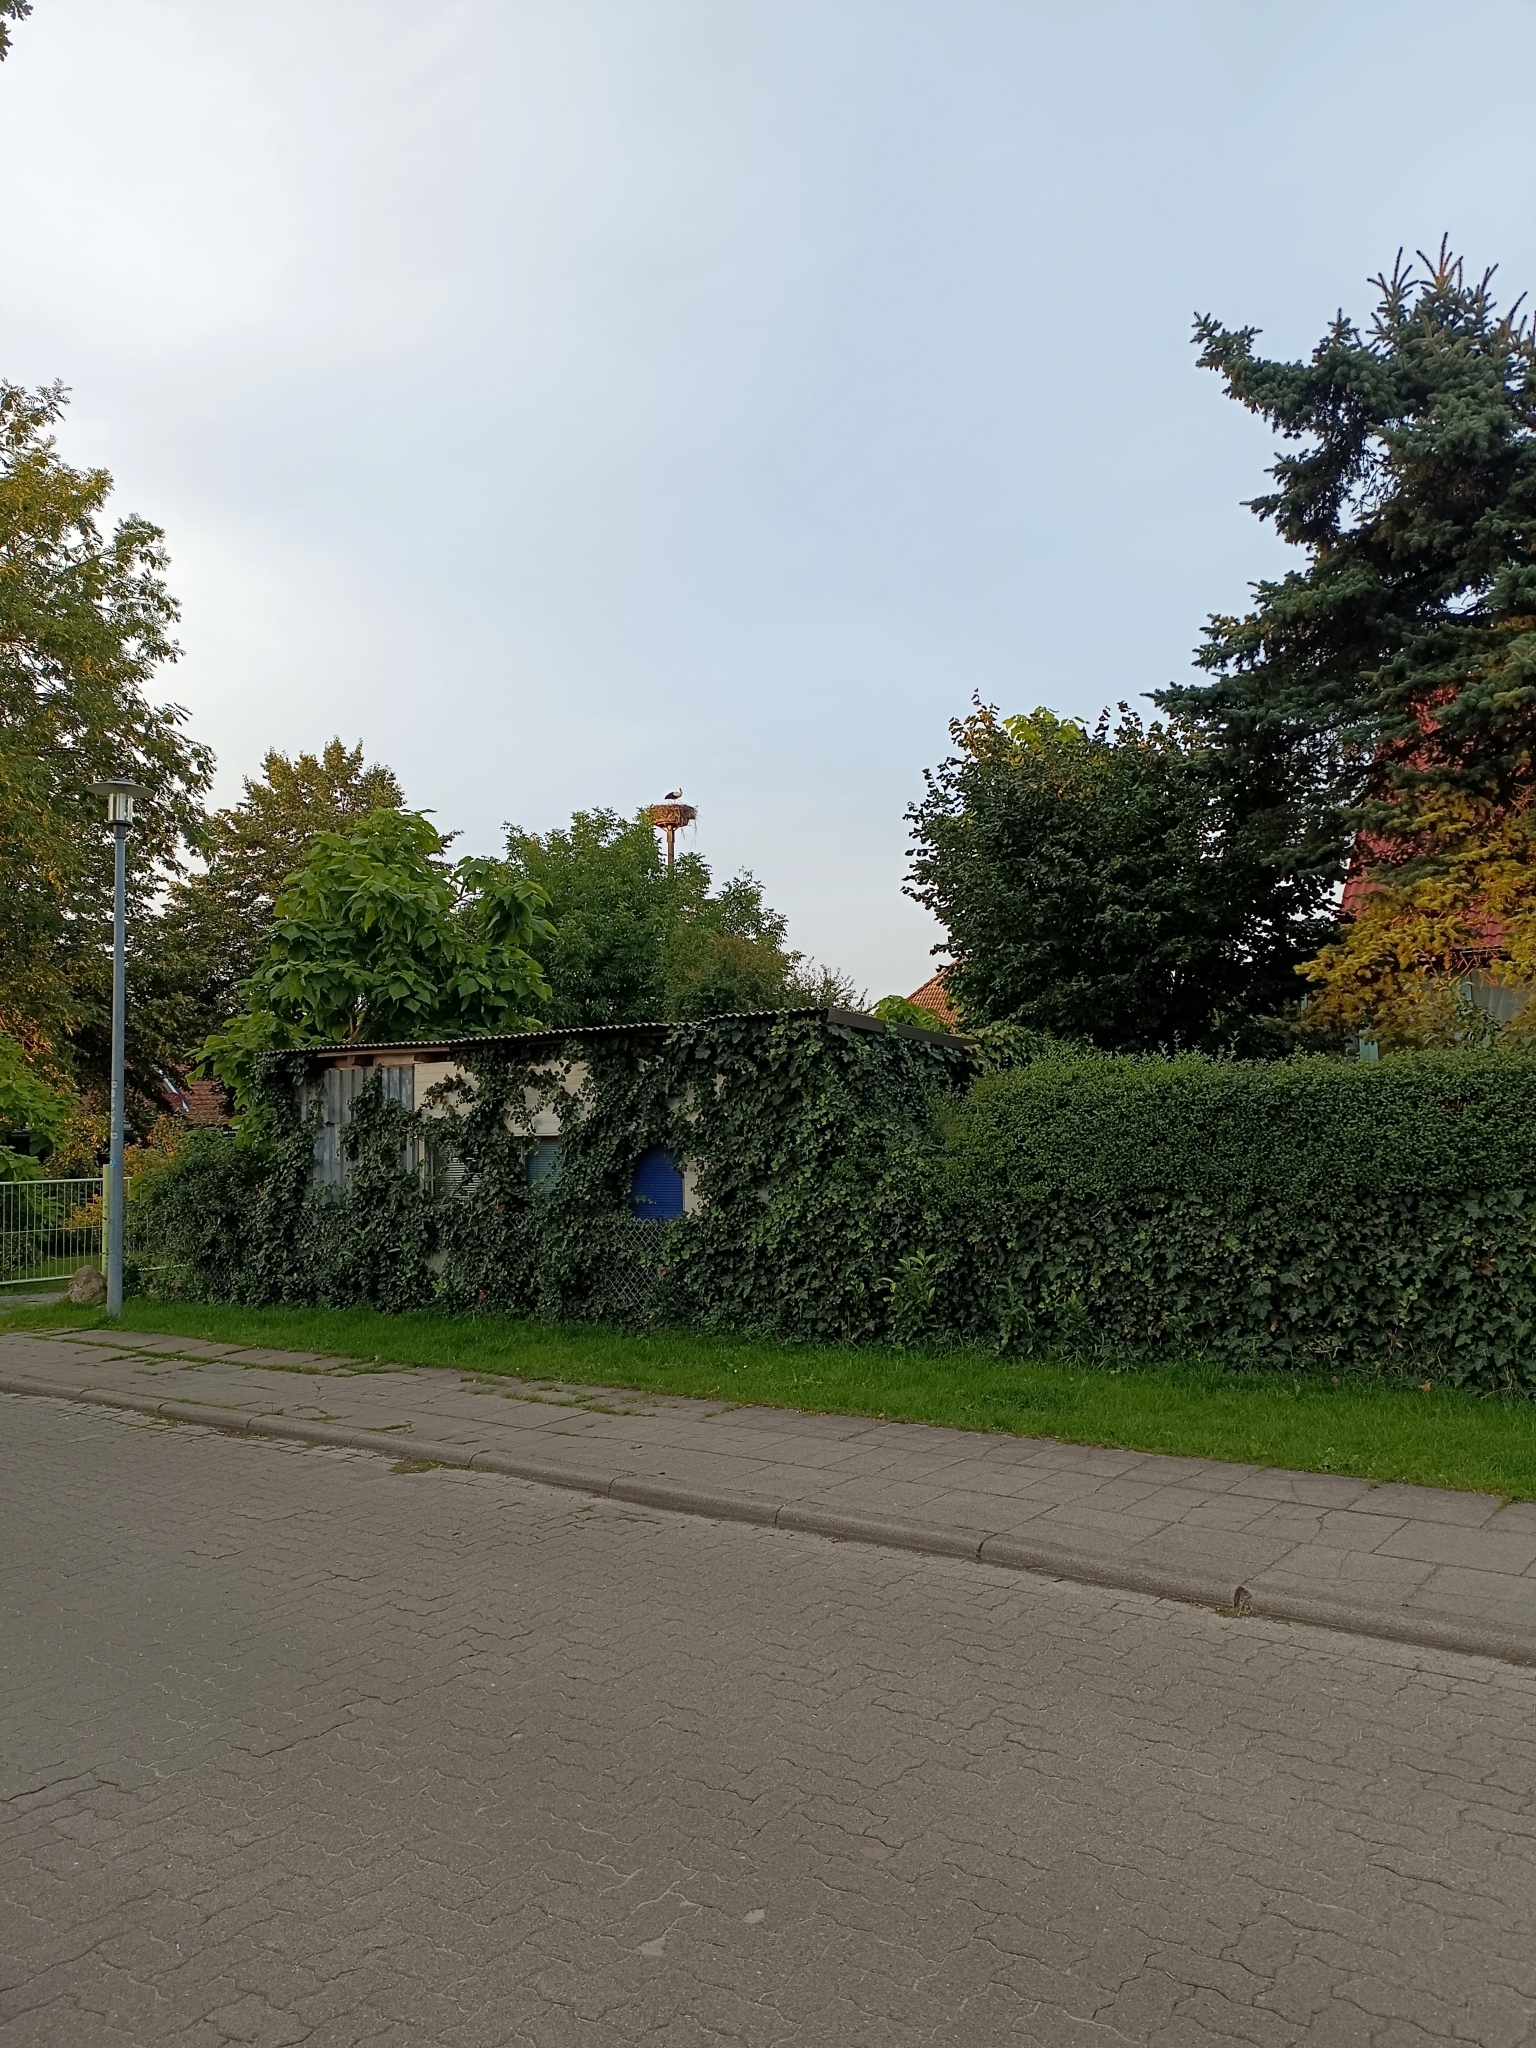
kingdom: Animalia
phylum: Chordata
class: Aves
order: Ciconiiformes
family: Ciconiidae
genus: Ciconia
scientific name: Ciconia ciconia
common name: White stork
